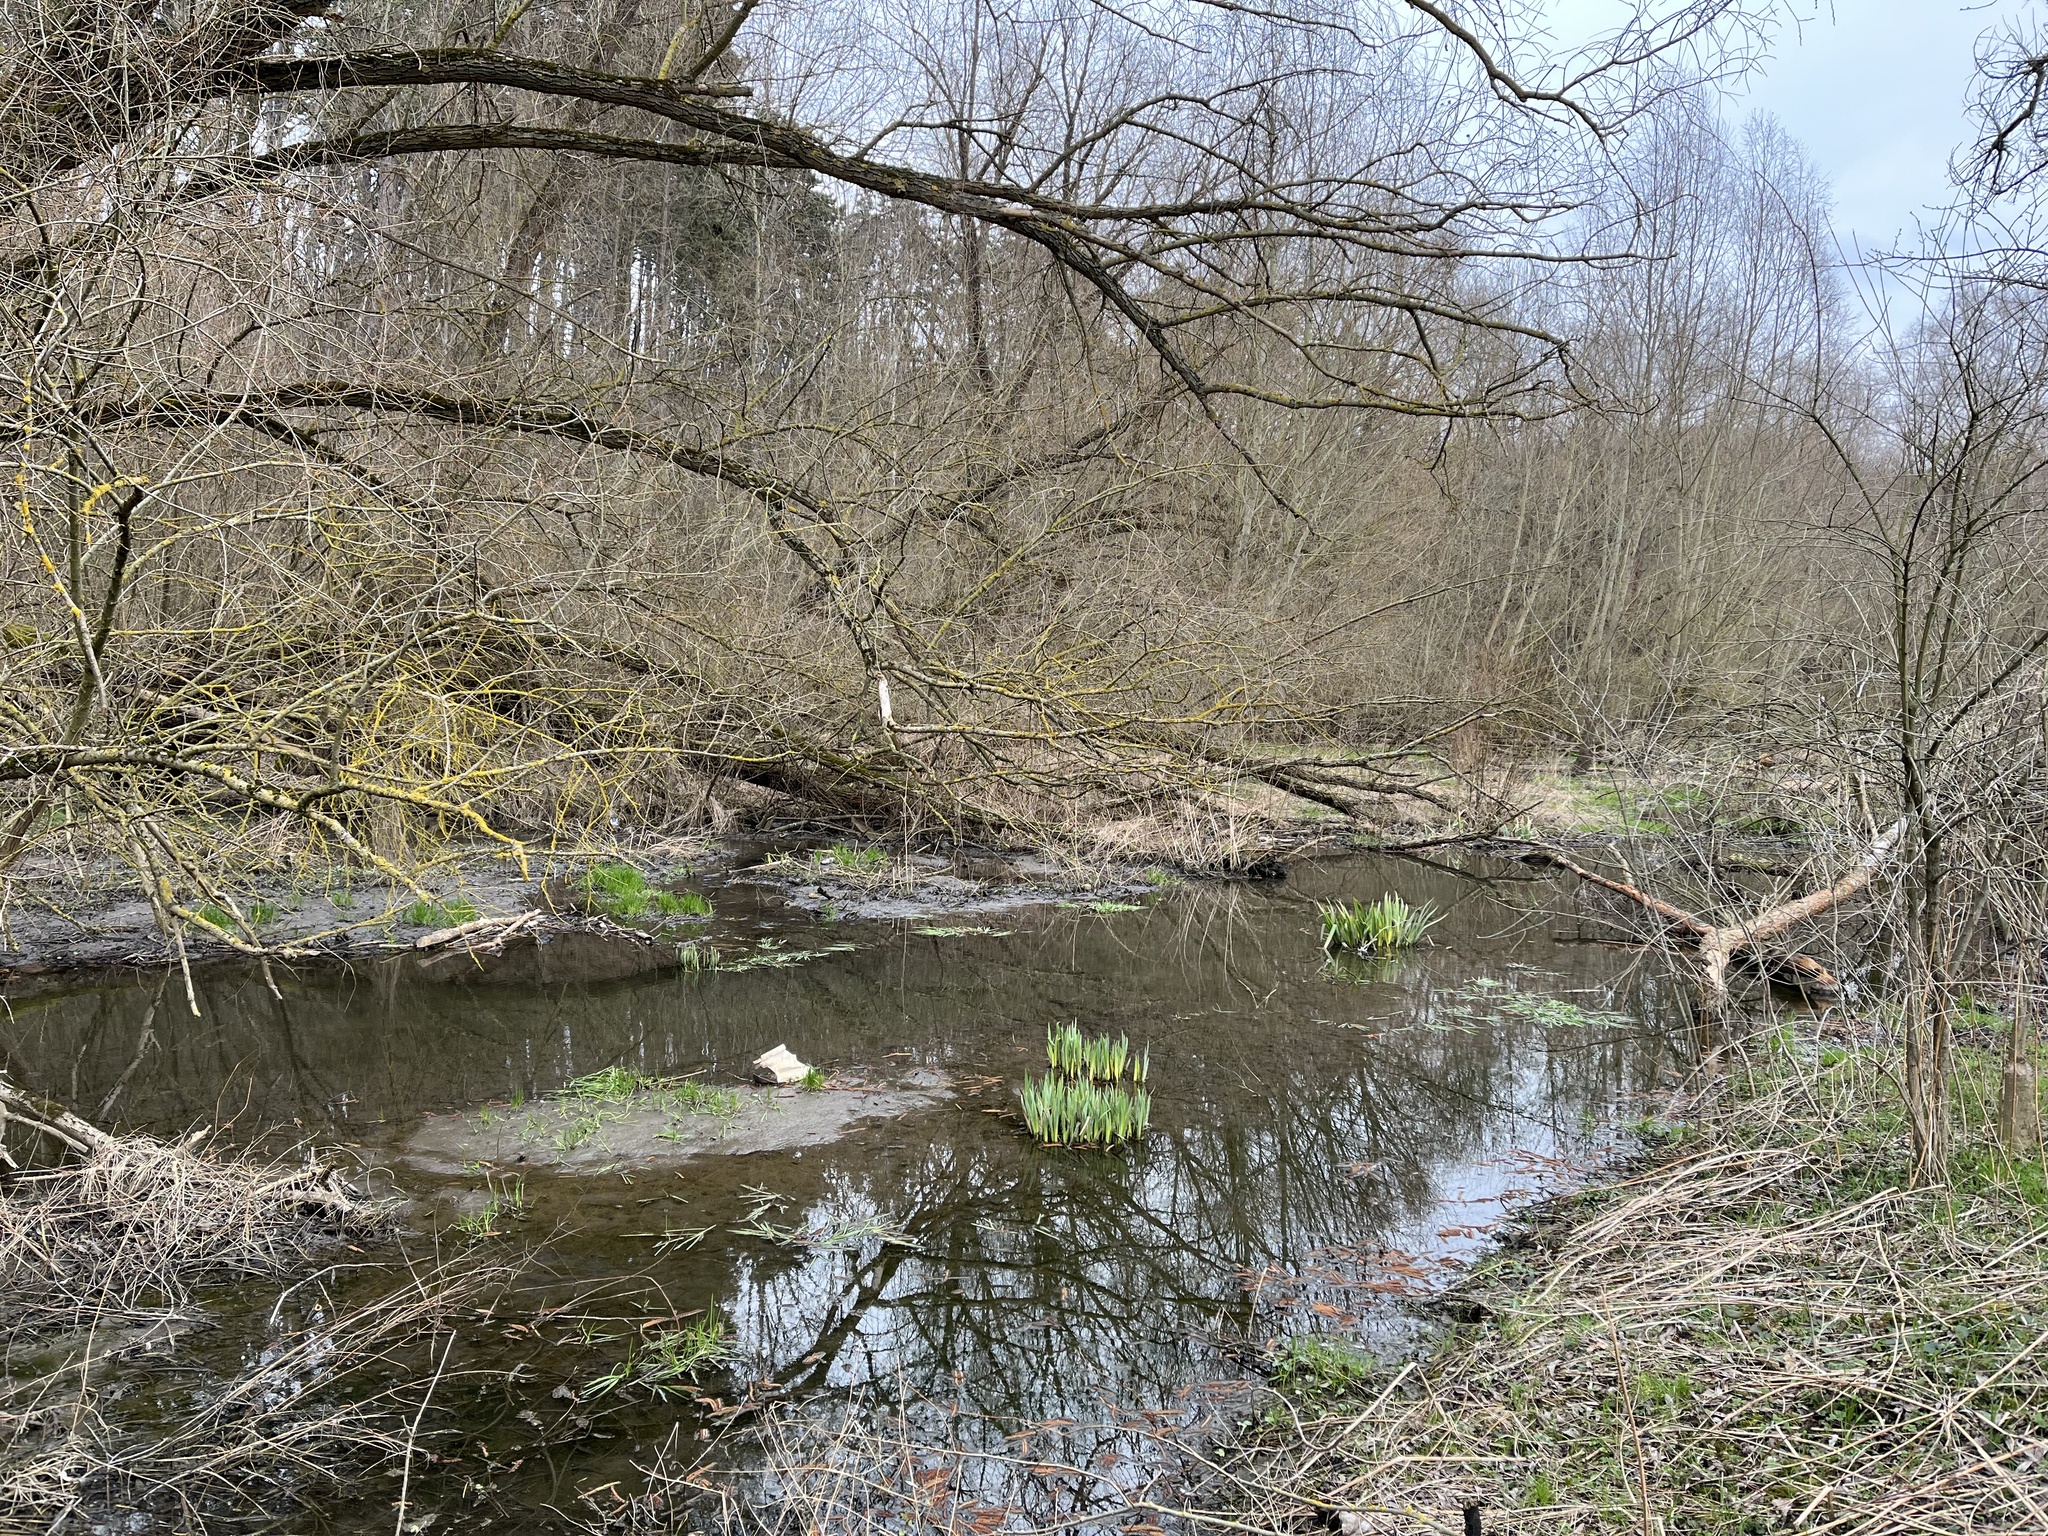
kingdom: Animalia
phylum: Chordata
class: Mammalia
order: Rodentia
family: Castoridae
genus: Castor
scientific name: Castor fiber
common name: Eurasian beaver
